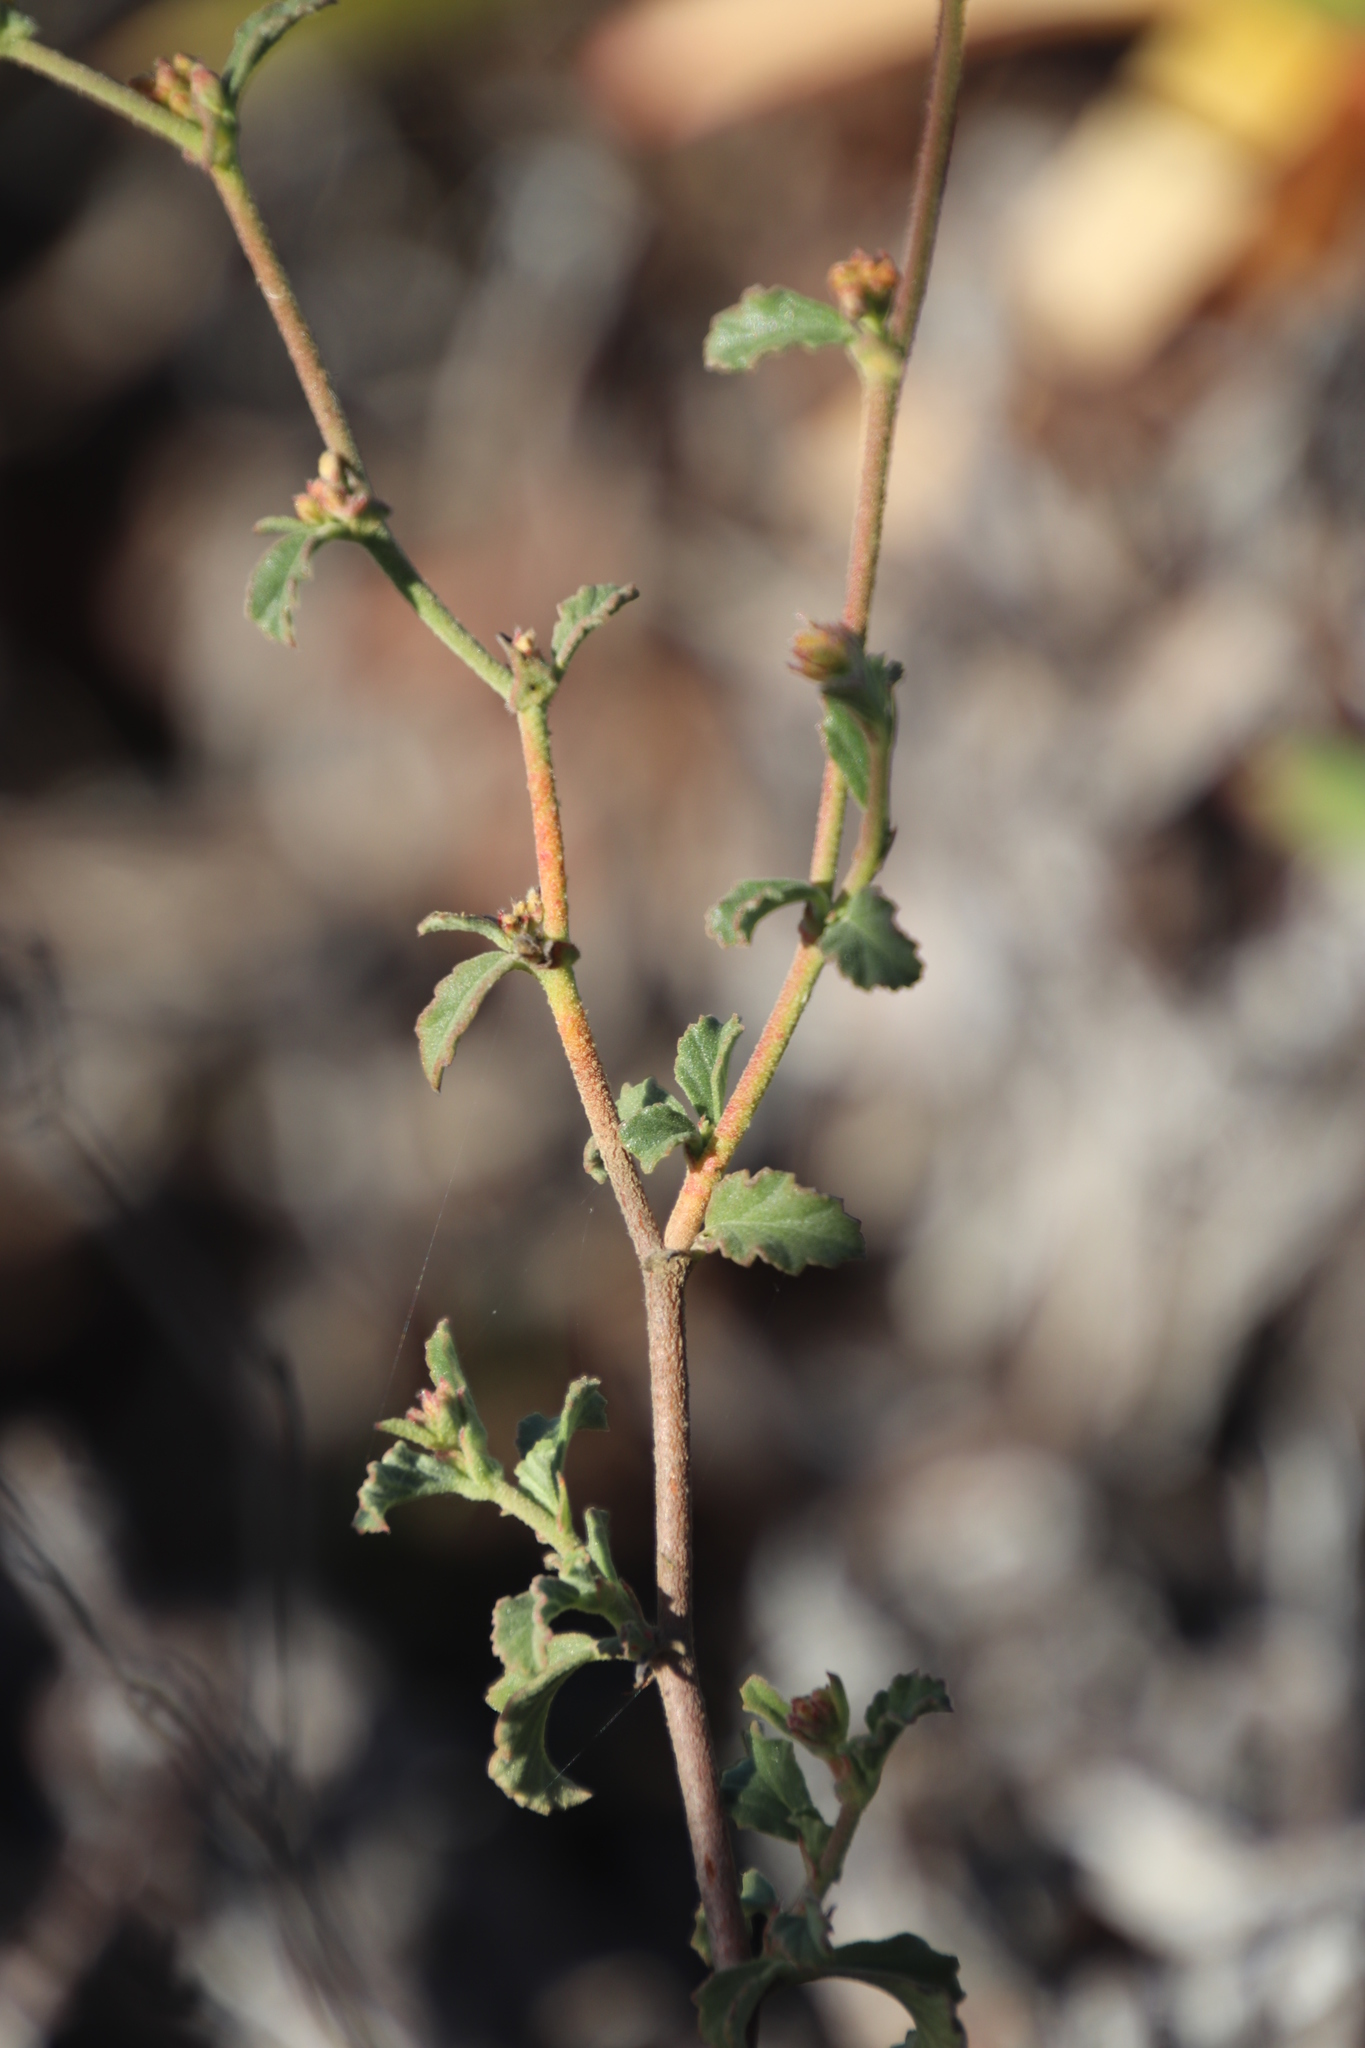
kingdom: Plantae
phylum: Tracheophyta
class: Magnoliopsida
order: Malvales
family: Malvaceae
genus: Hermannia
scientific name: Hermannia multiflora
